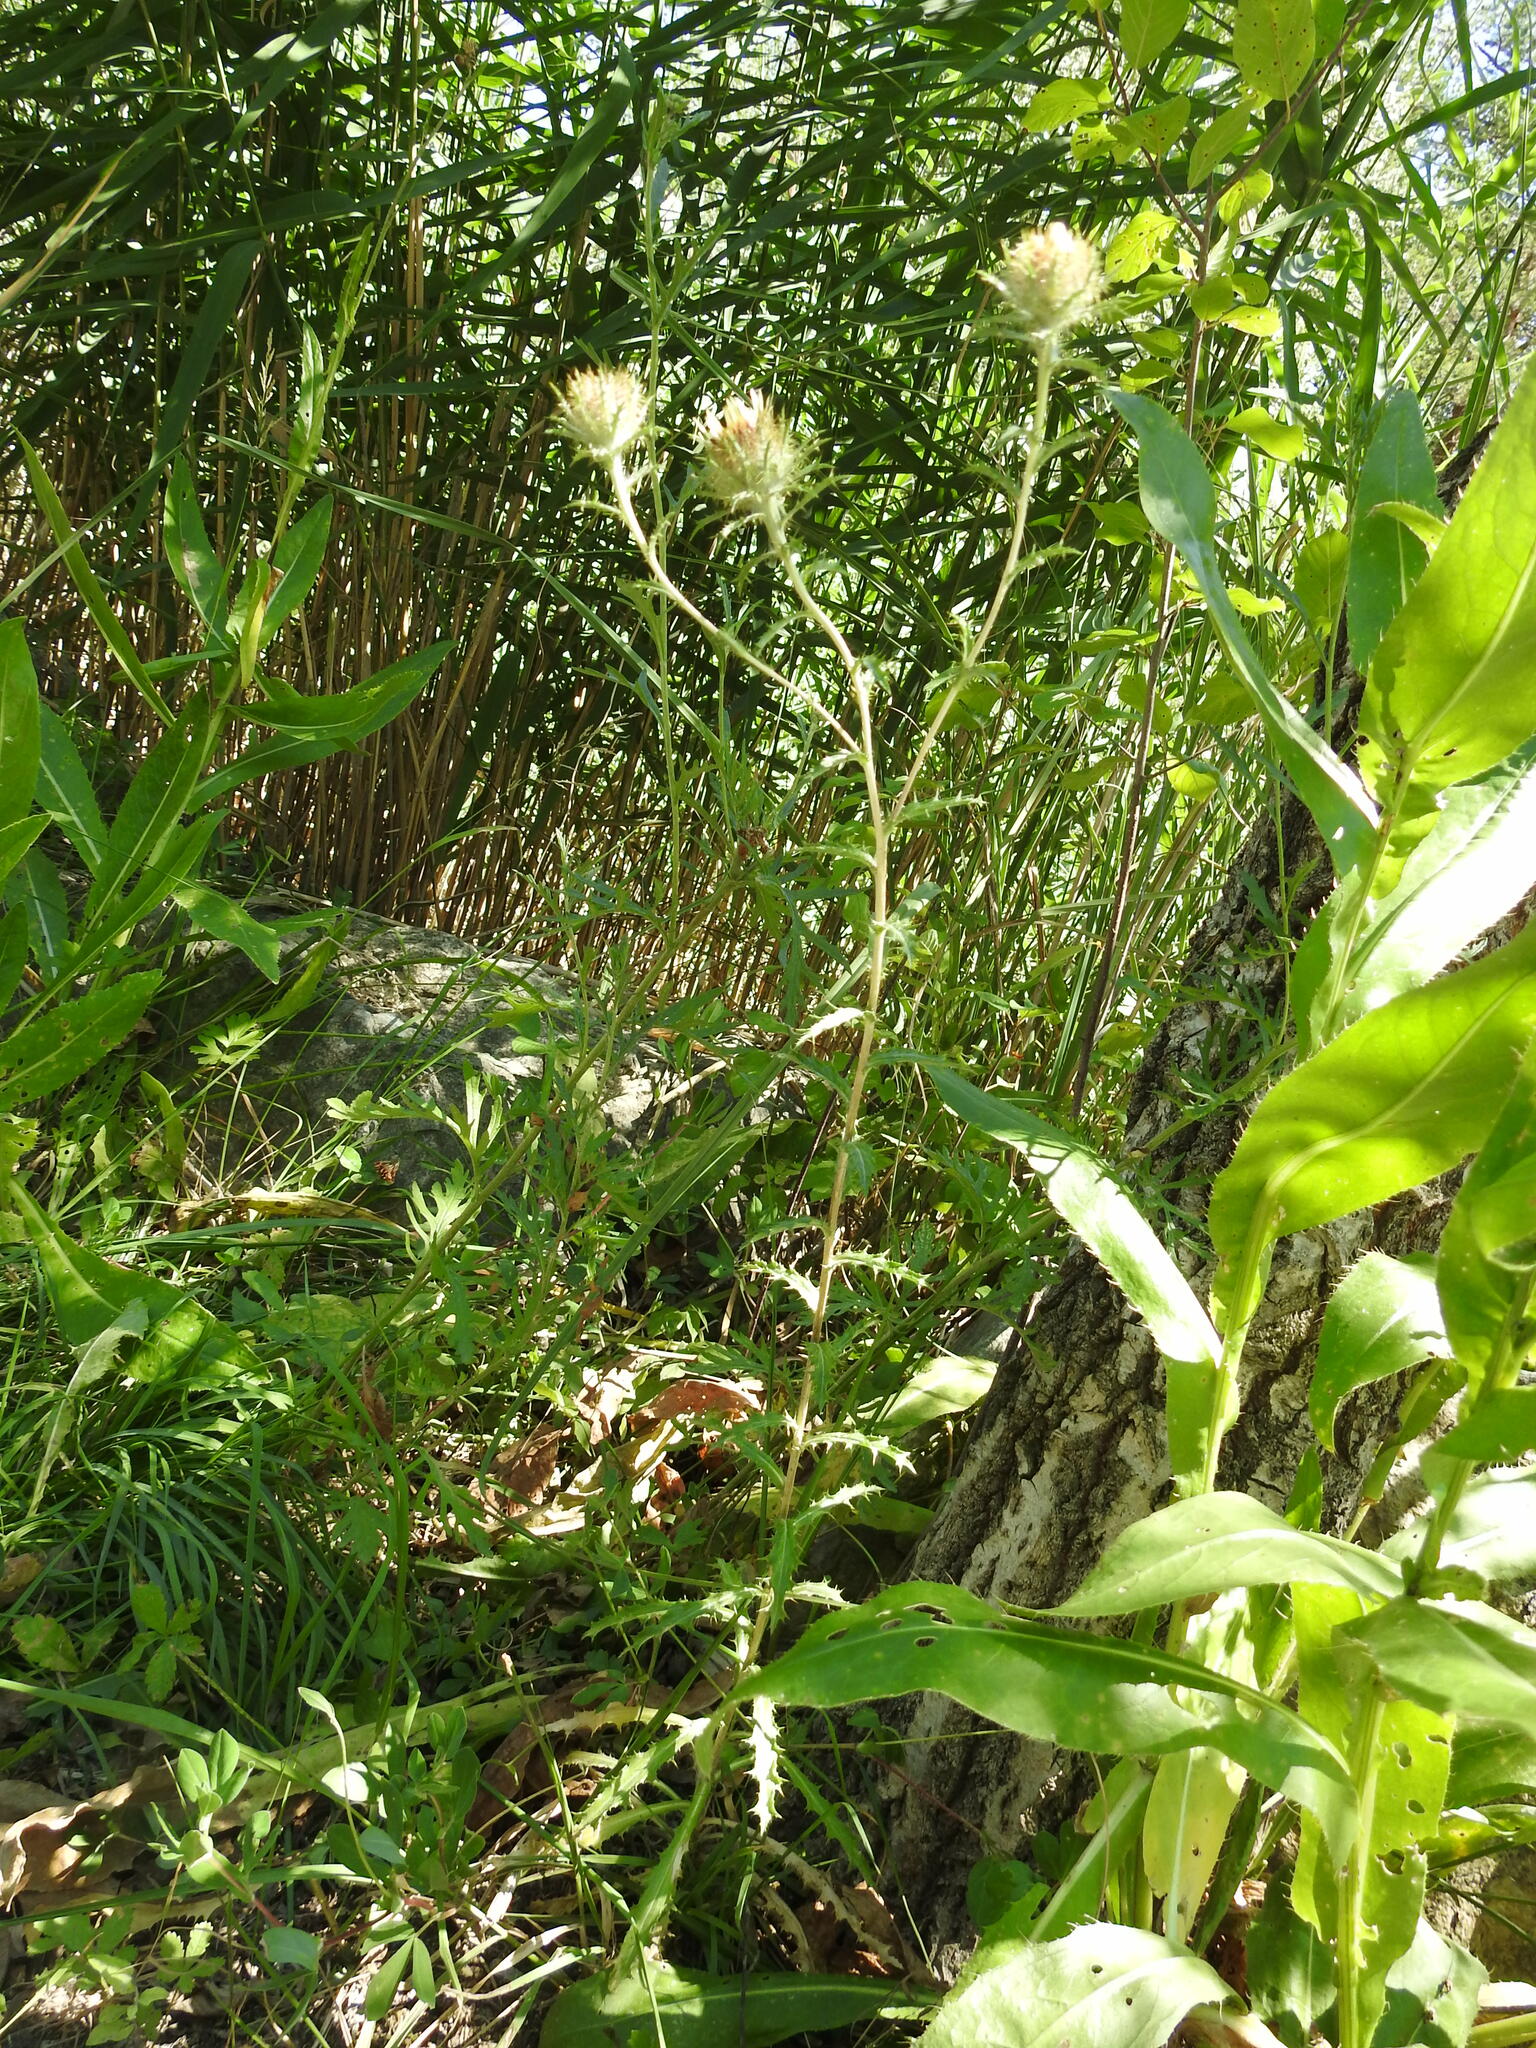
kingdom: Plantae
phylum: Tracheophyta
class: Magnoliopsida
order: Asterales
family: Asteraceae
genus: Carlina
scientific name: Carlina vulgaris
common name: Carline thistle
